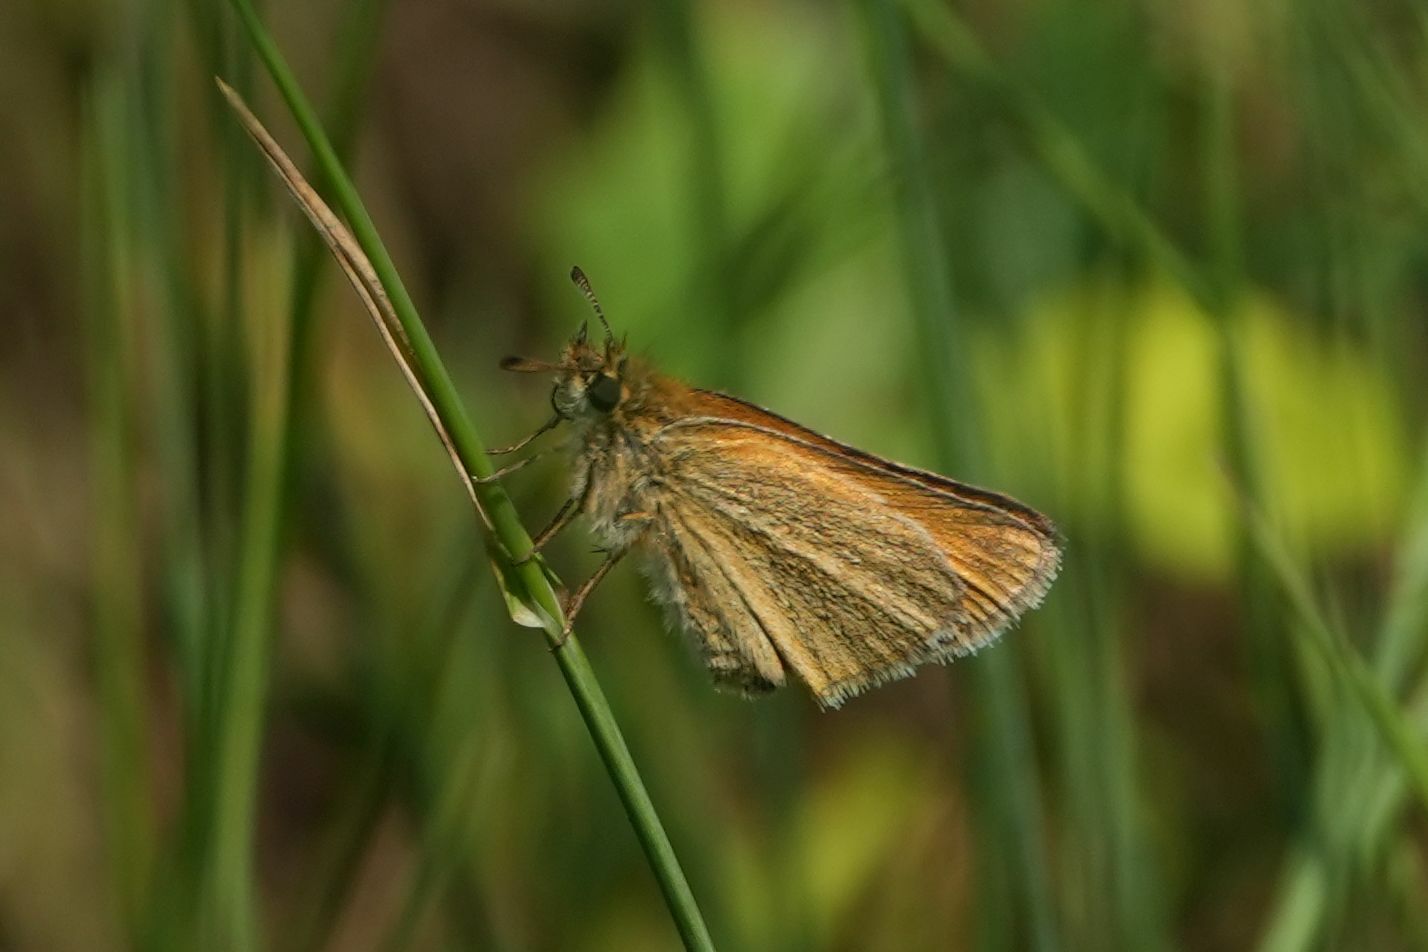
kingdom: Animalia
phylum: Arthropoda
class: Insecta
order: Lepidoptera
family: Hesperiidae
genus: Thymelicus
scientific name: Thymelicus lineola
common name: Essex skipper
